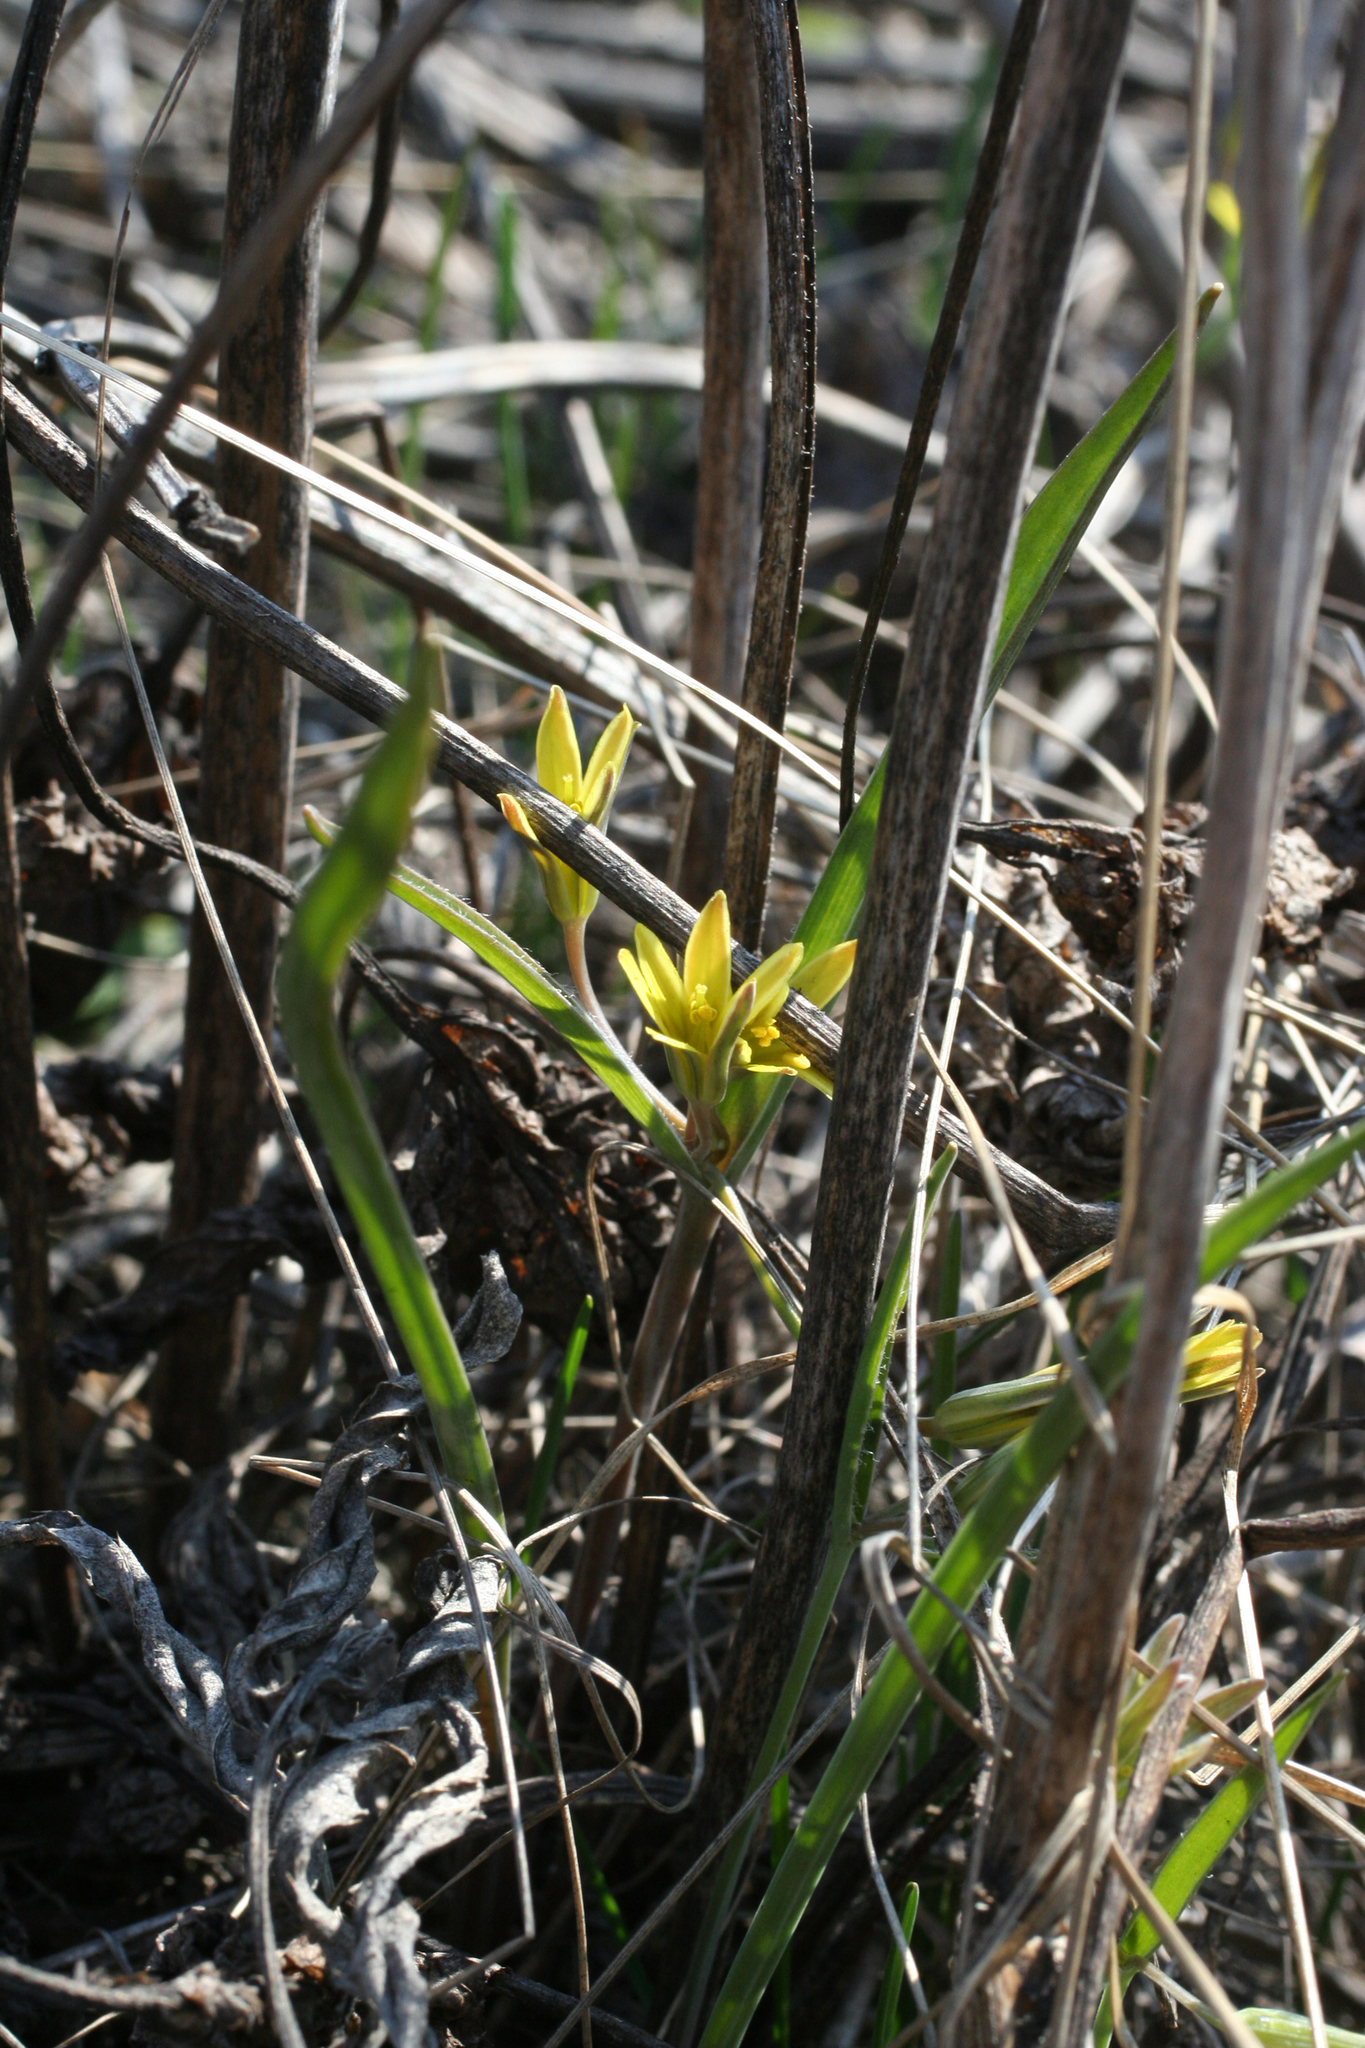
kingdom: Plantae
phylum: Tracheophyta
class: Liliopsida
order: Liliales
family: Liliaceae
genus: Gagea
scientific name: Gagea fedtschenkoana
